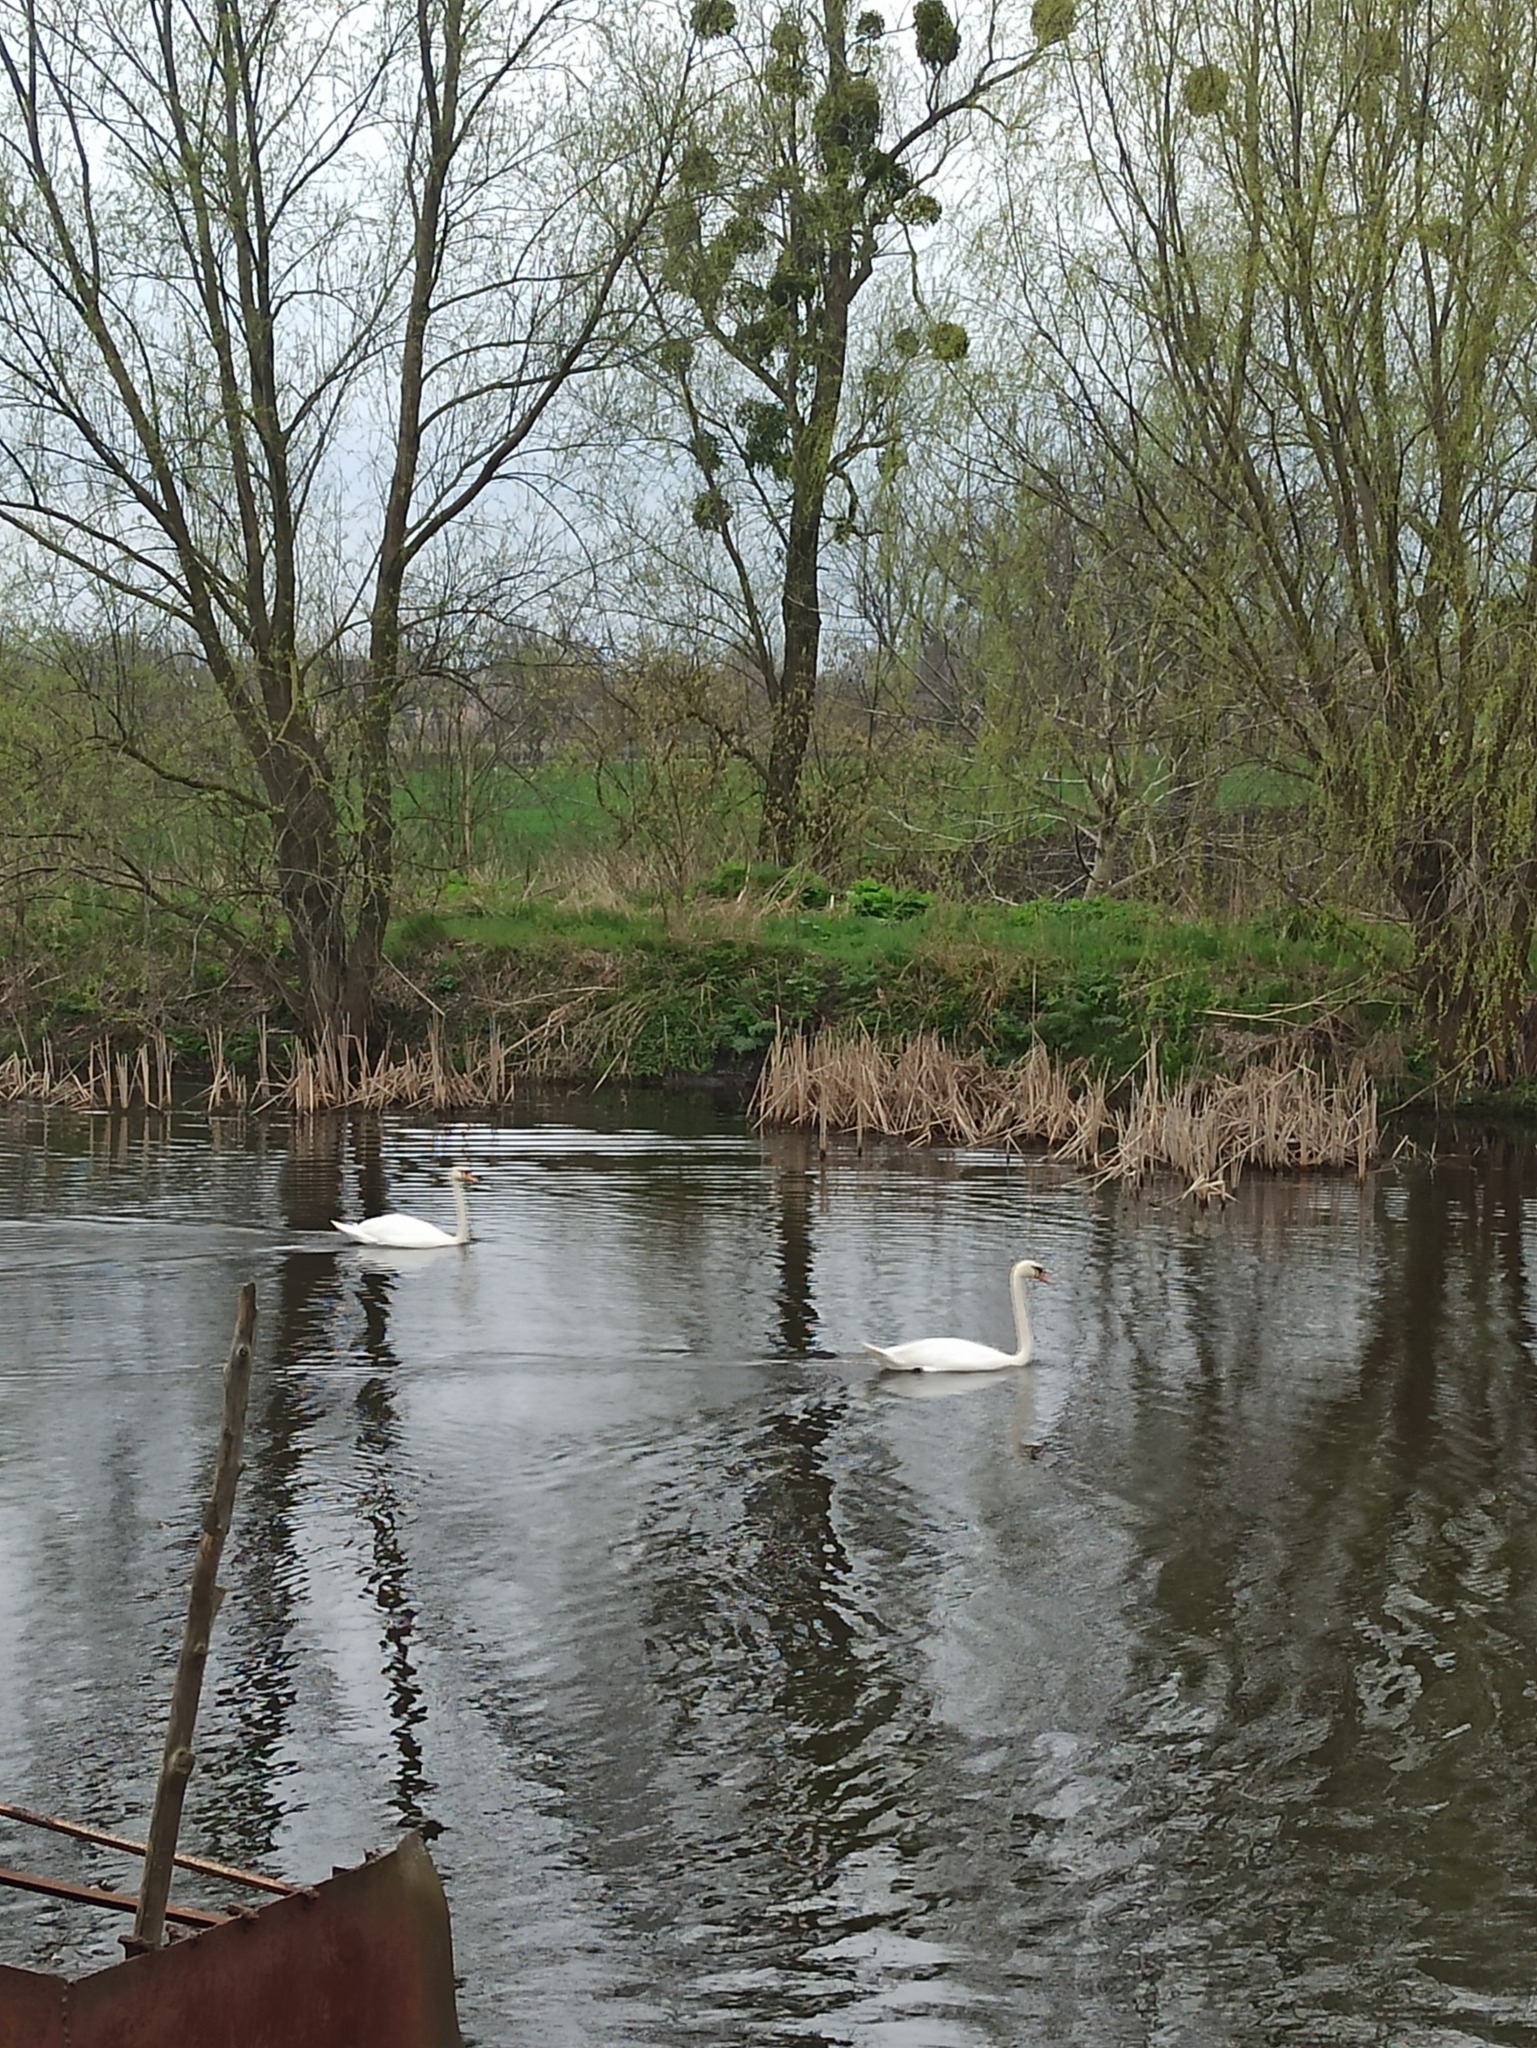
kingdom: Animalia
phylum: Chordata
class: Aves
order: Anseriformes
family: Anatidae
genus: Cygnus
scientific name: Cygnus olor
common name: Mute swan
